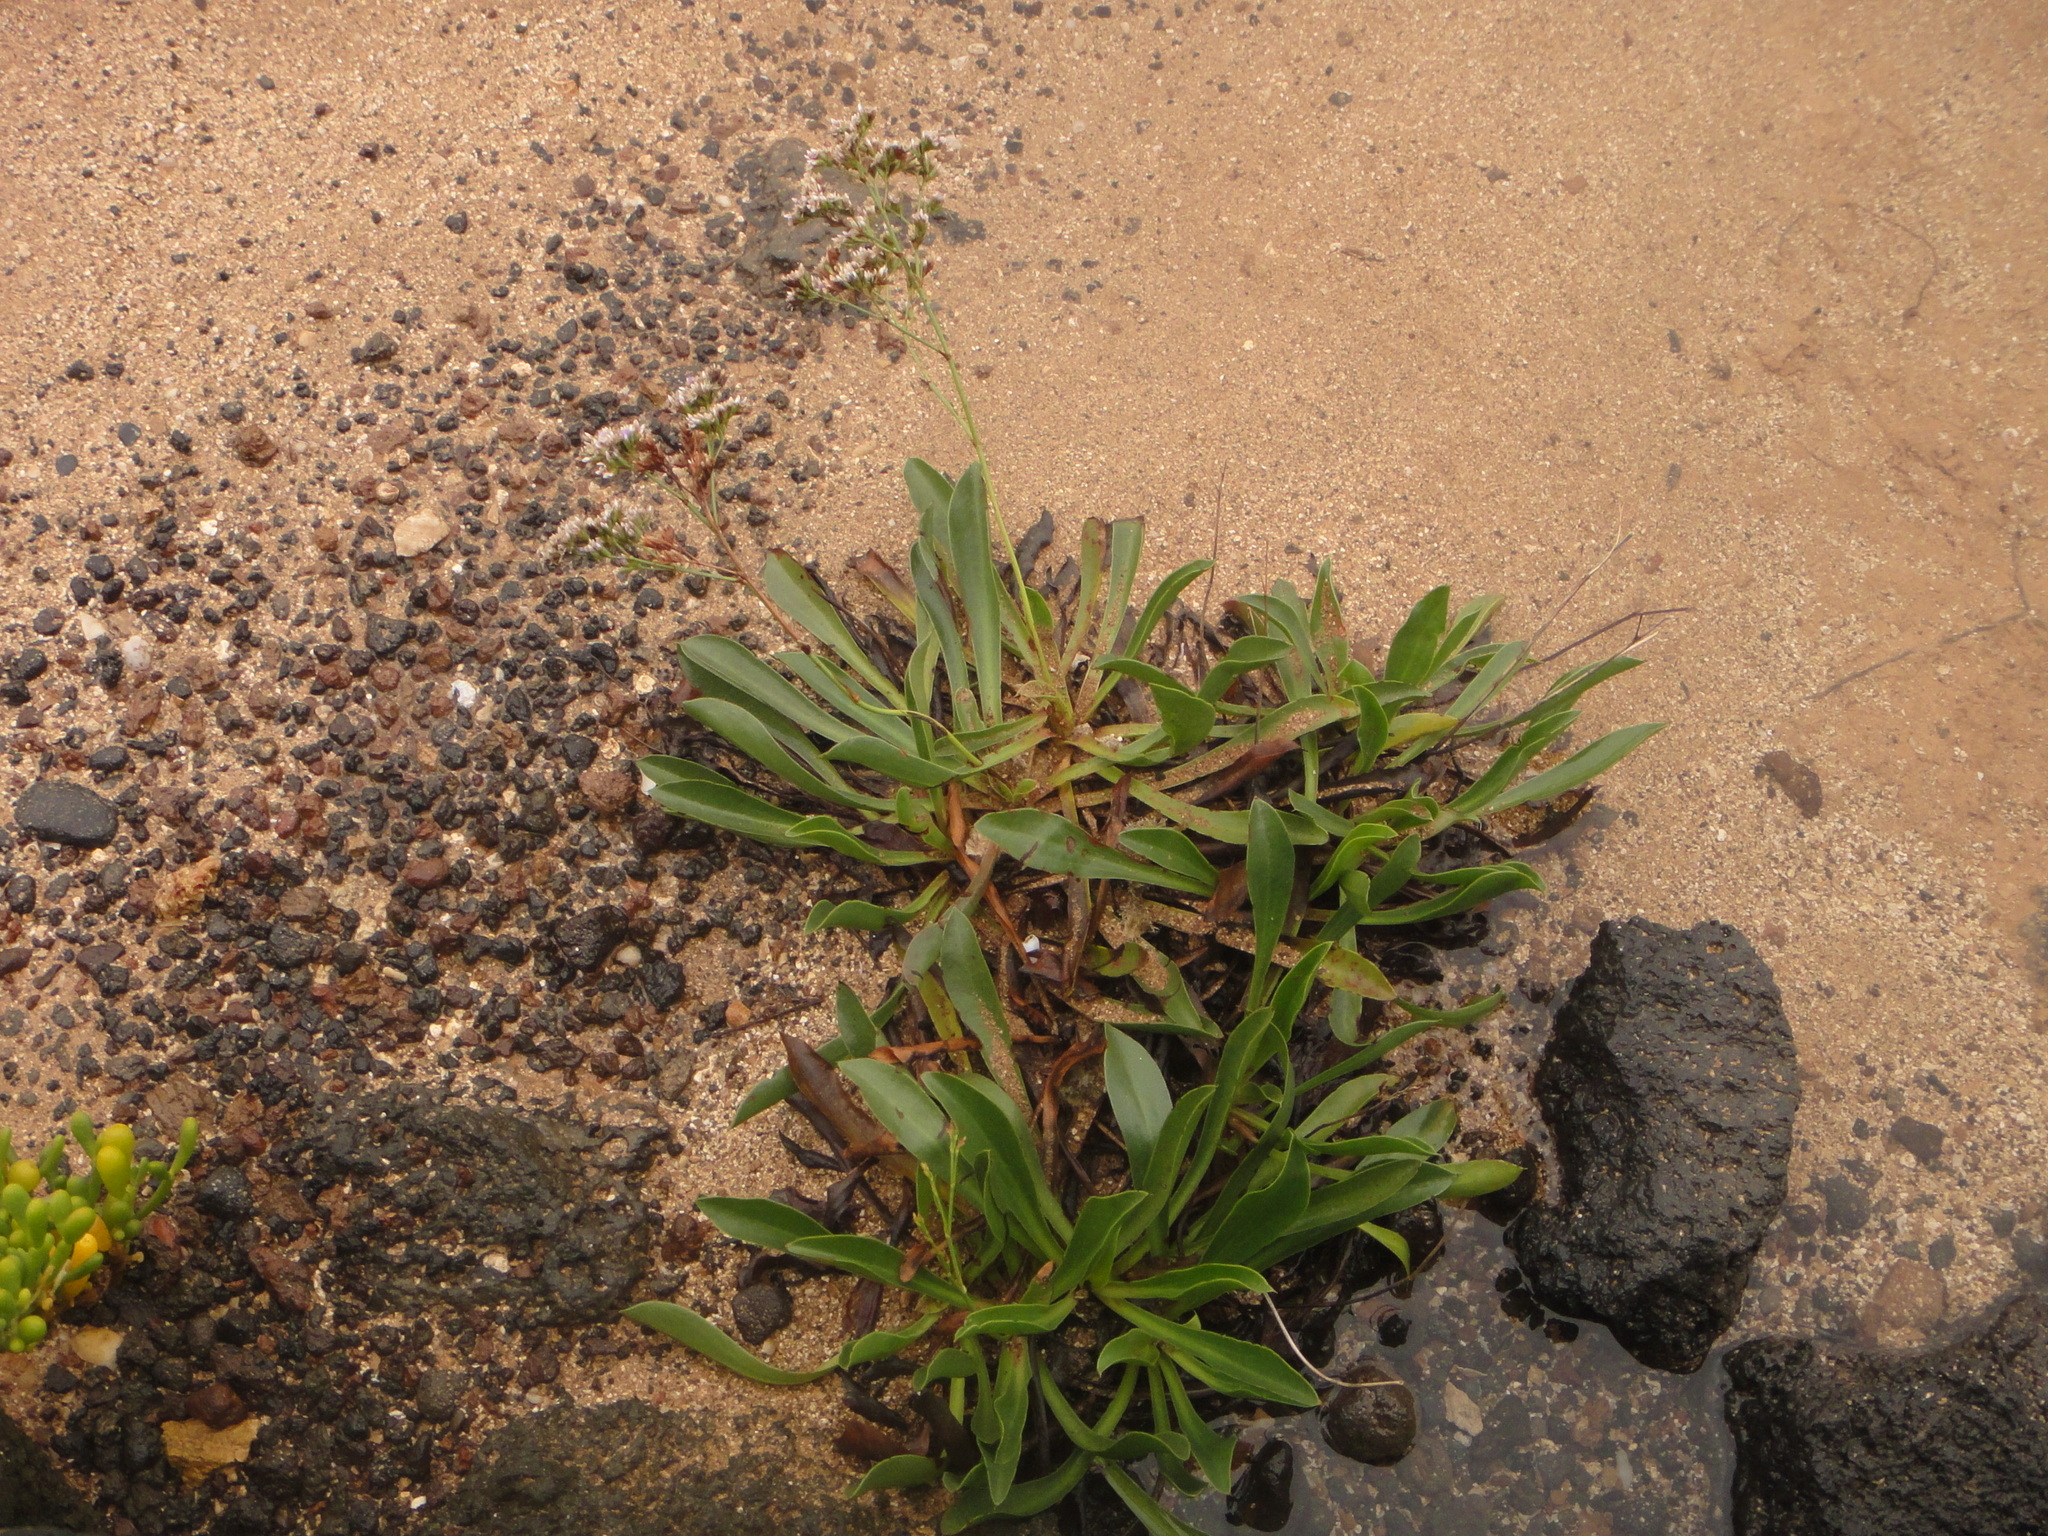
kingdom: Plantae
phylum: Tracheophyta
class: Magnoliopsida
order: Caryophyllales
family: Plumbaginaceae
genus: Limonium
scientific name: Limonium bollei
